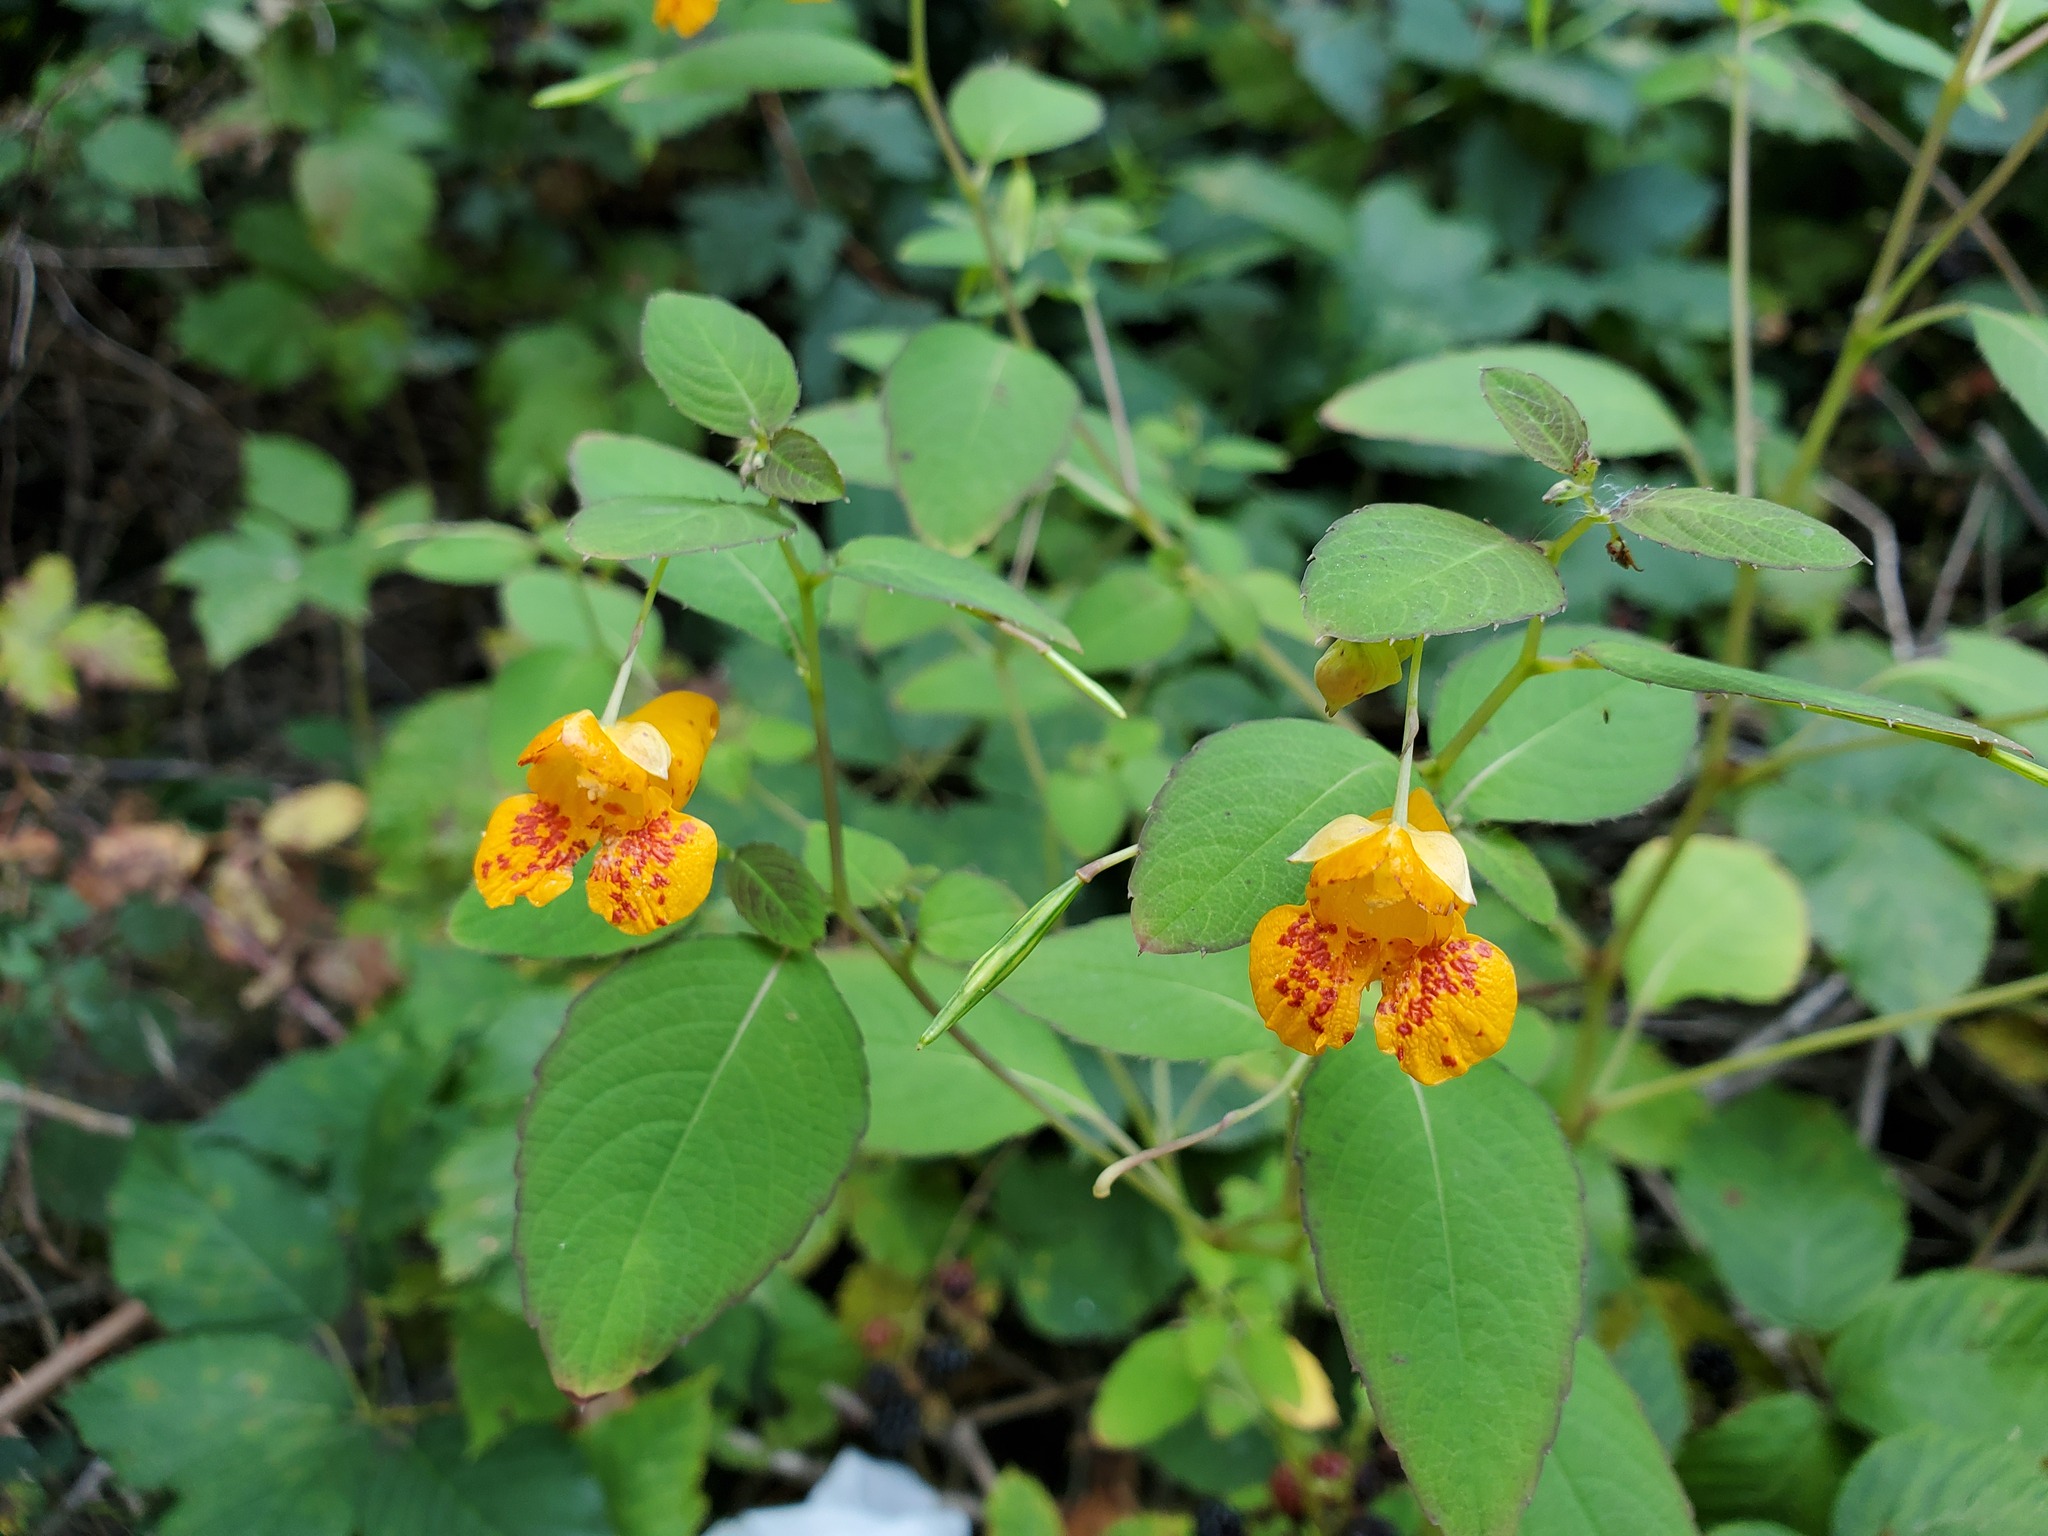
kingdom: Plantae
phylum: Tracheophyta
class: Magnoliopsida
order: Ericales
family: Balsaminaceae
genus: Impatiens
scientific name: Impatiens capensis
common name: Orange balsam
